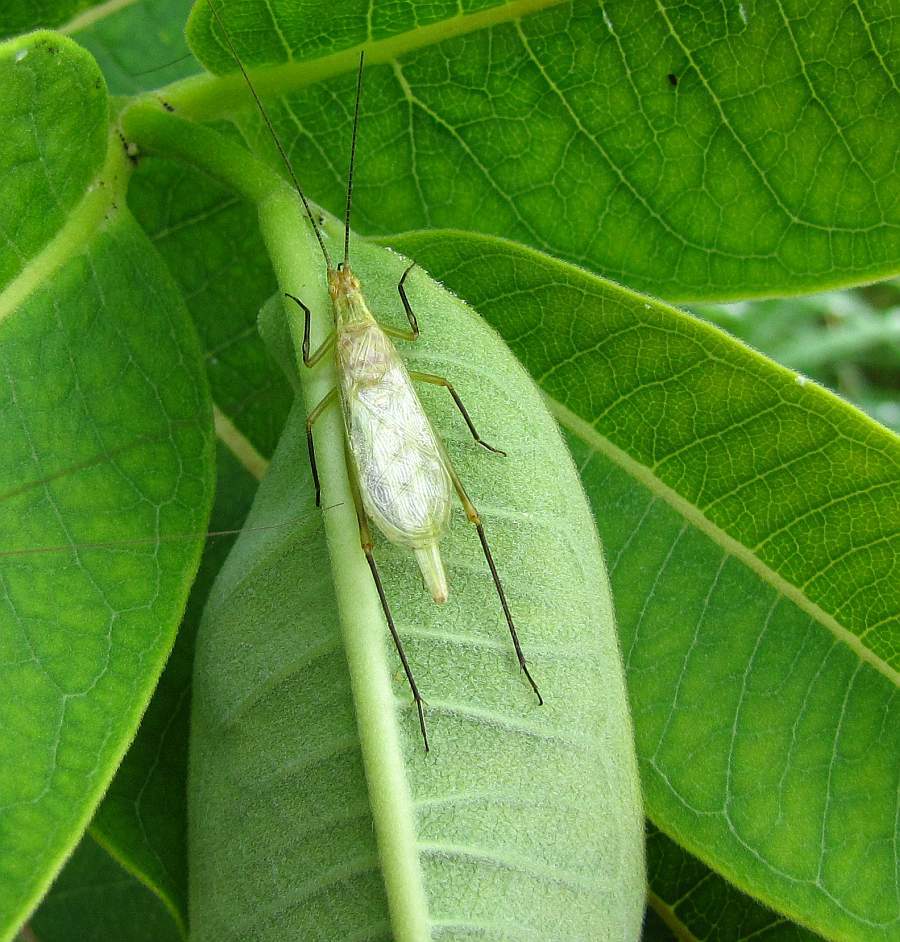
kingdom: Animalia
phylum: Arthropoda
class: Insecta
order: Orthoptera
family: Gryllidae
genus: Oecanthus
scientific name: Oecanthus nigricornis
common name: Black-horned tree cricket
